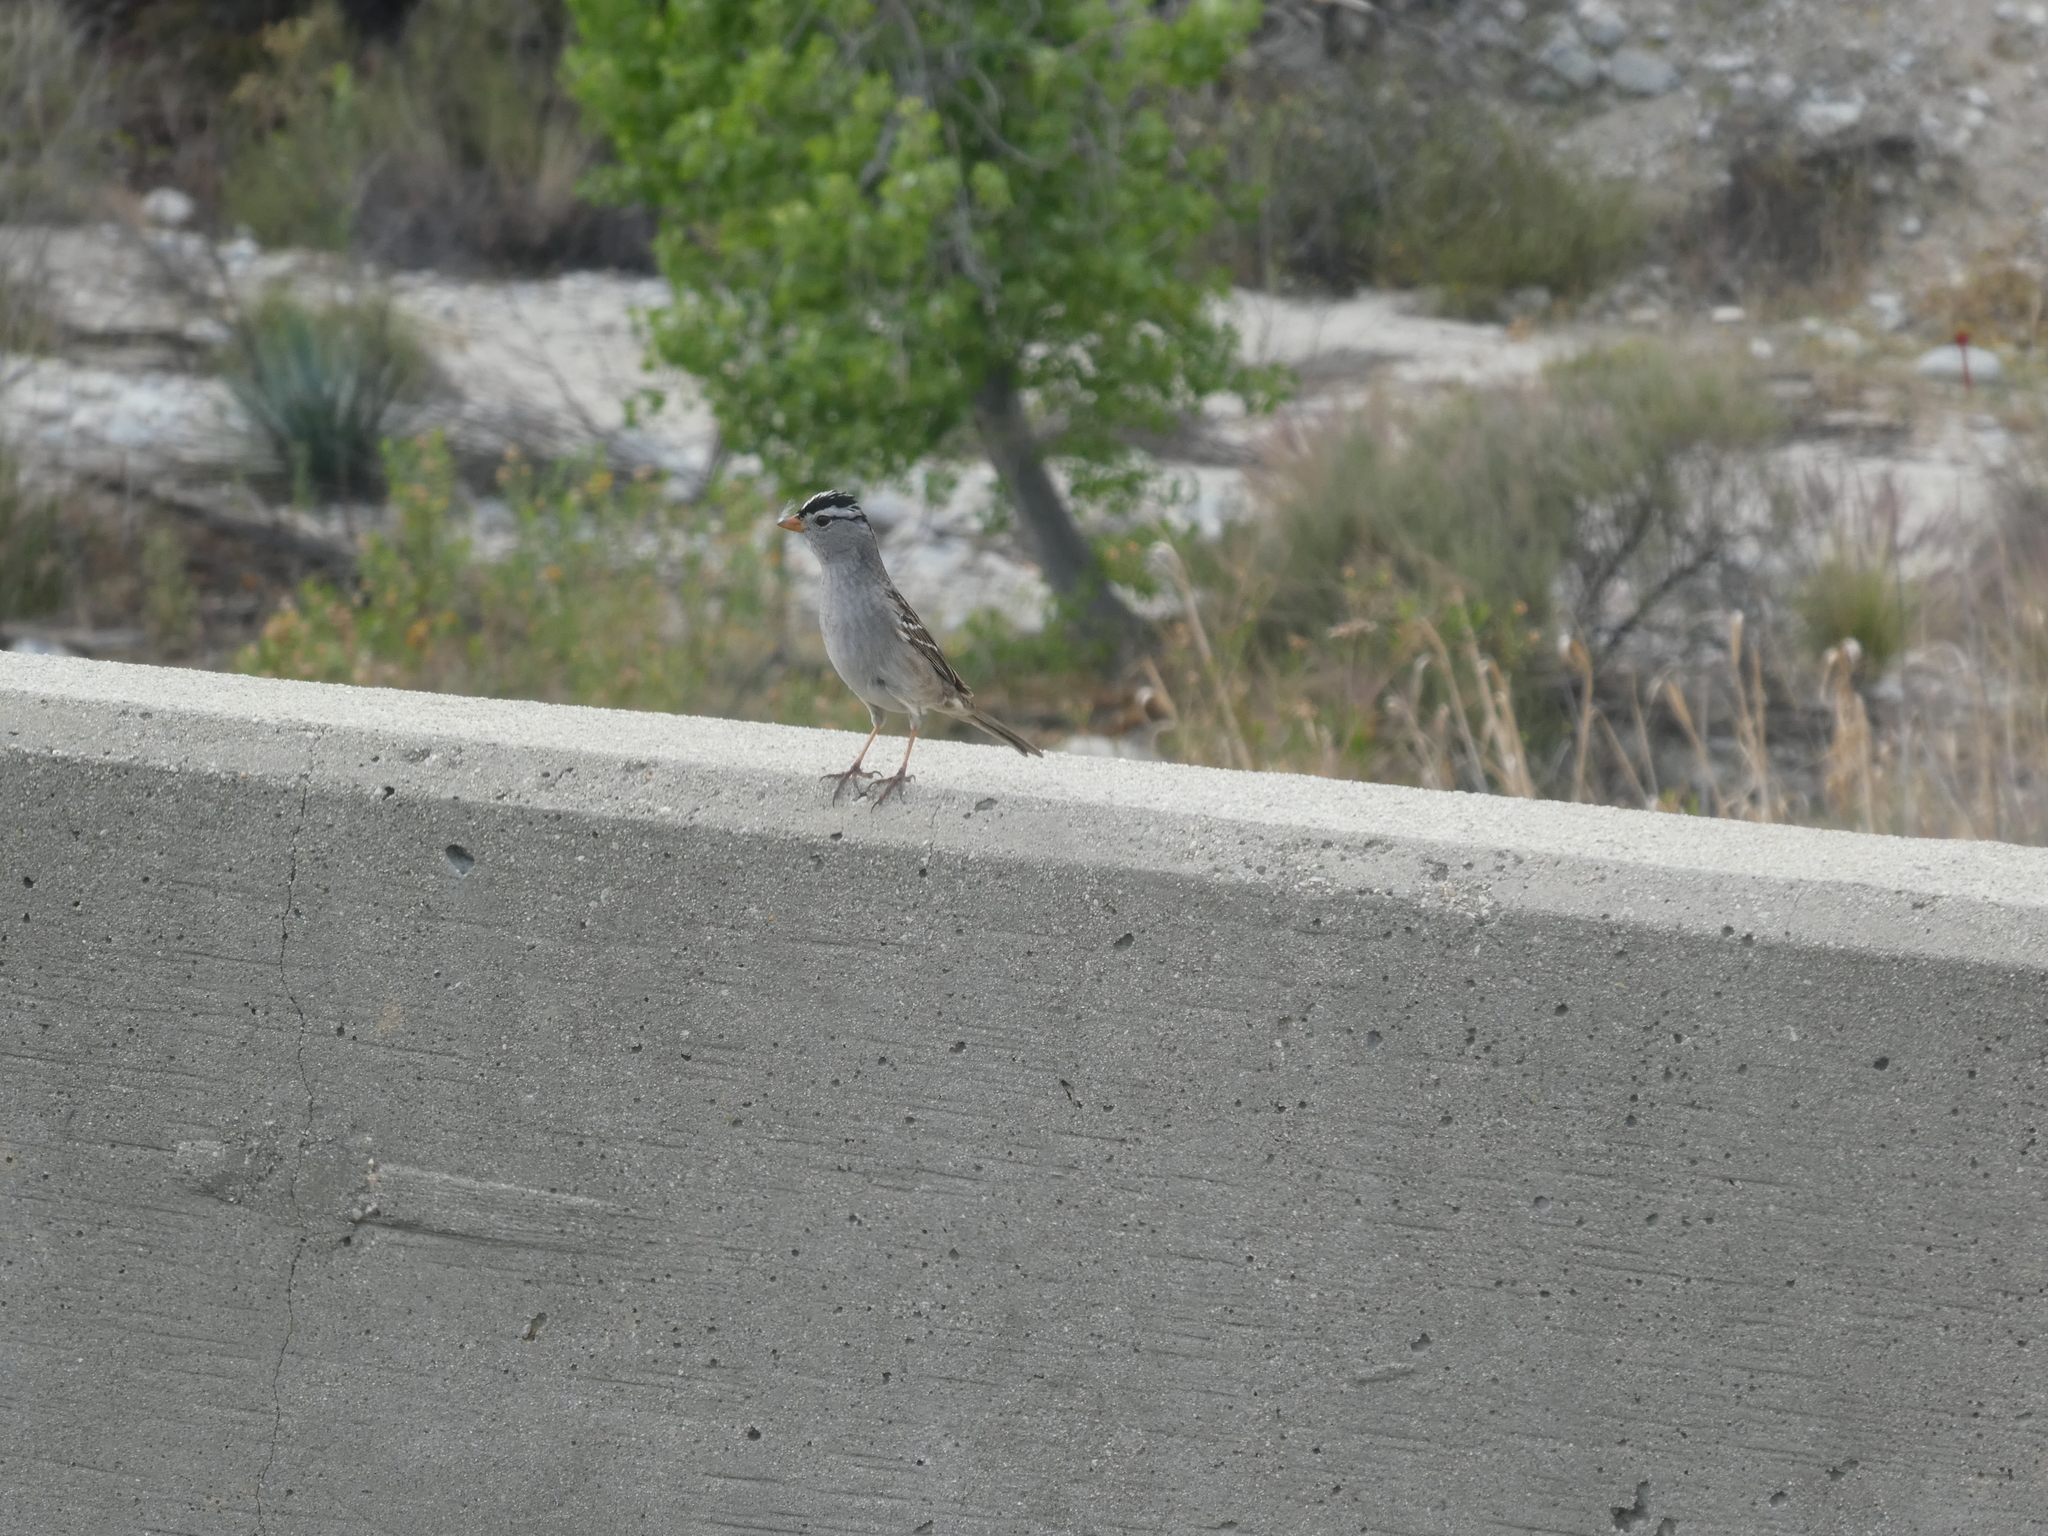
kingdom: Animalia
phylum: Chordata
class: Aves
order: Passeriformes
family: Passerellidae
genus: Zonotrichia
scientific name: Zonotrichia leucophrys
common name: White-crowned sparrow
